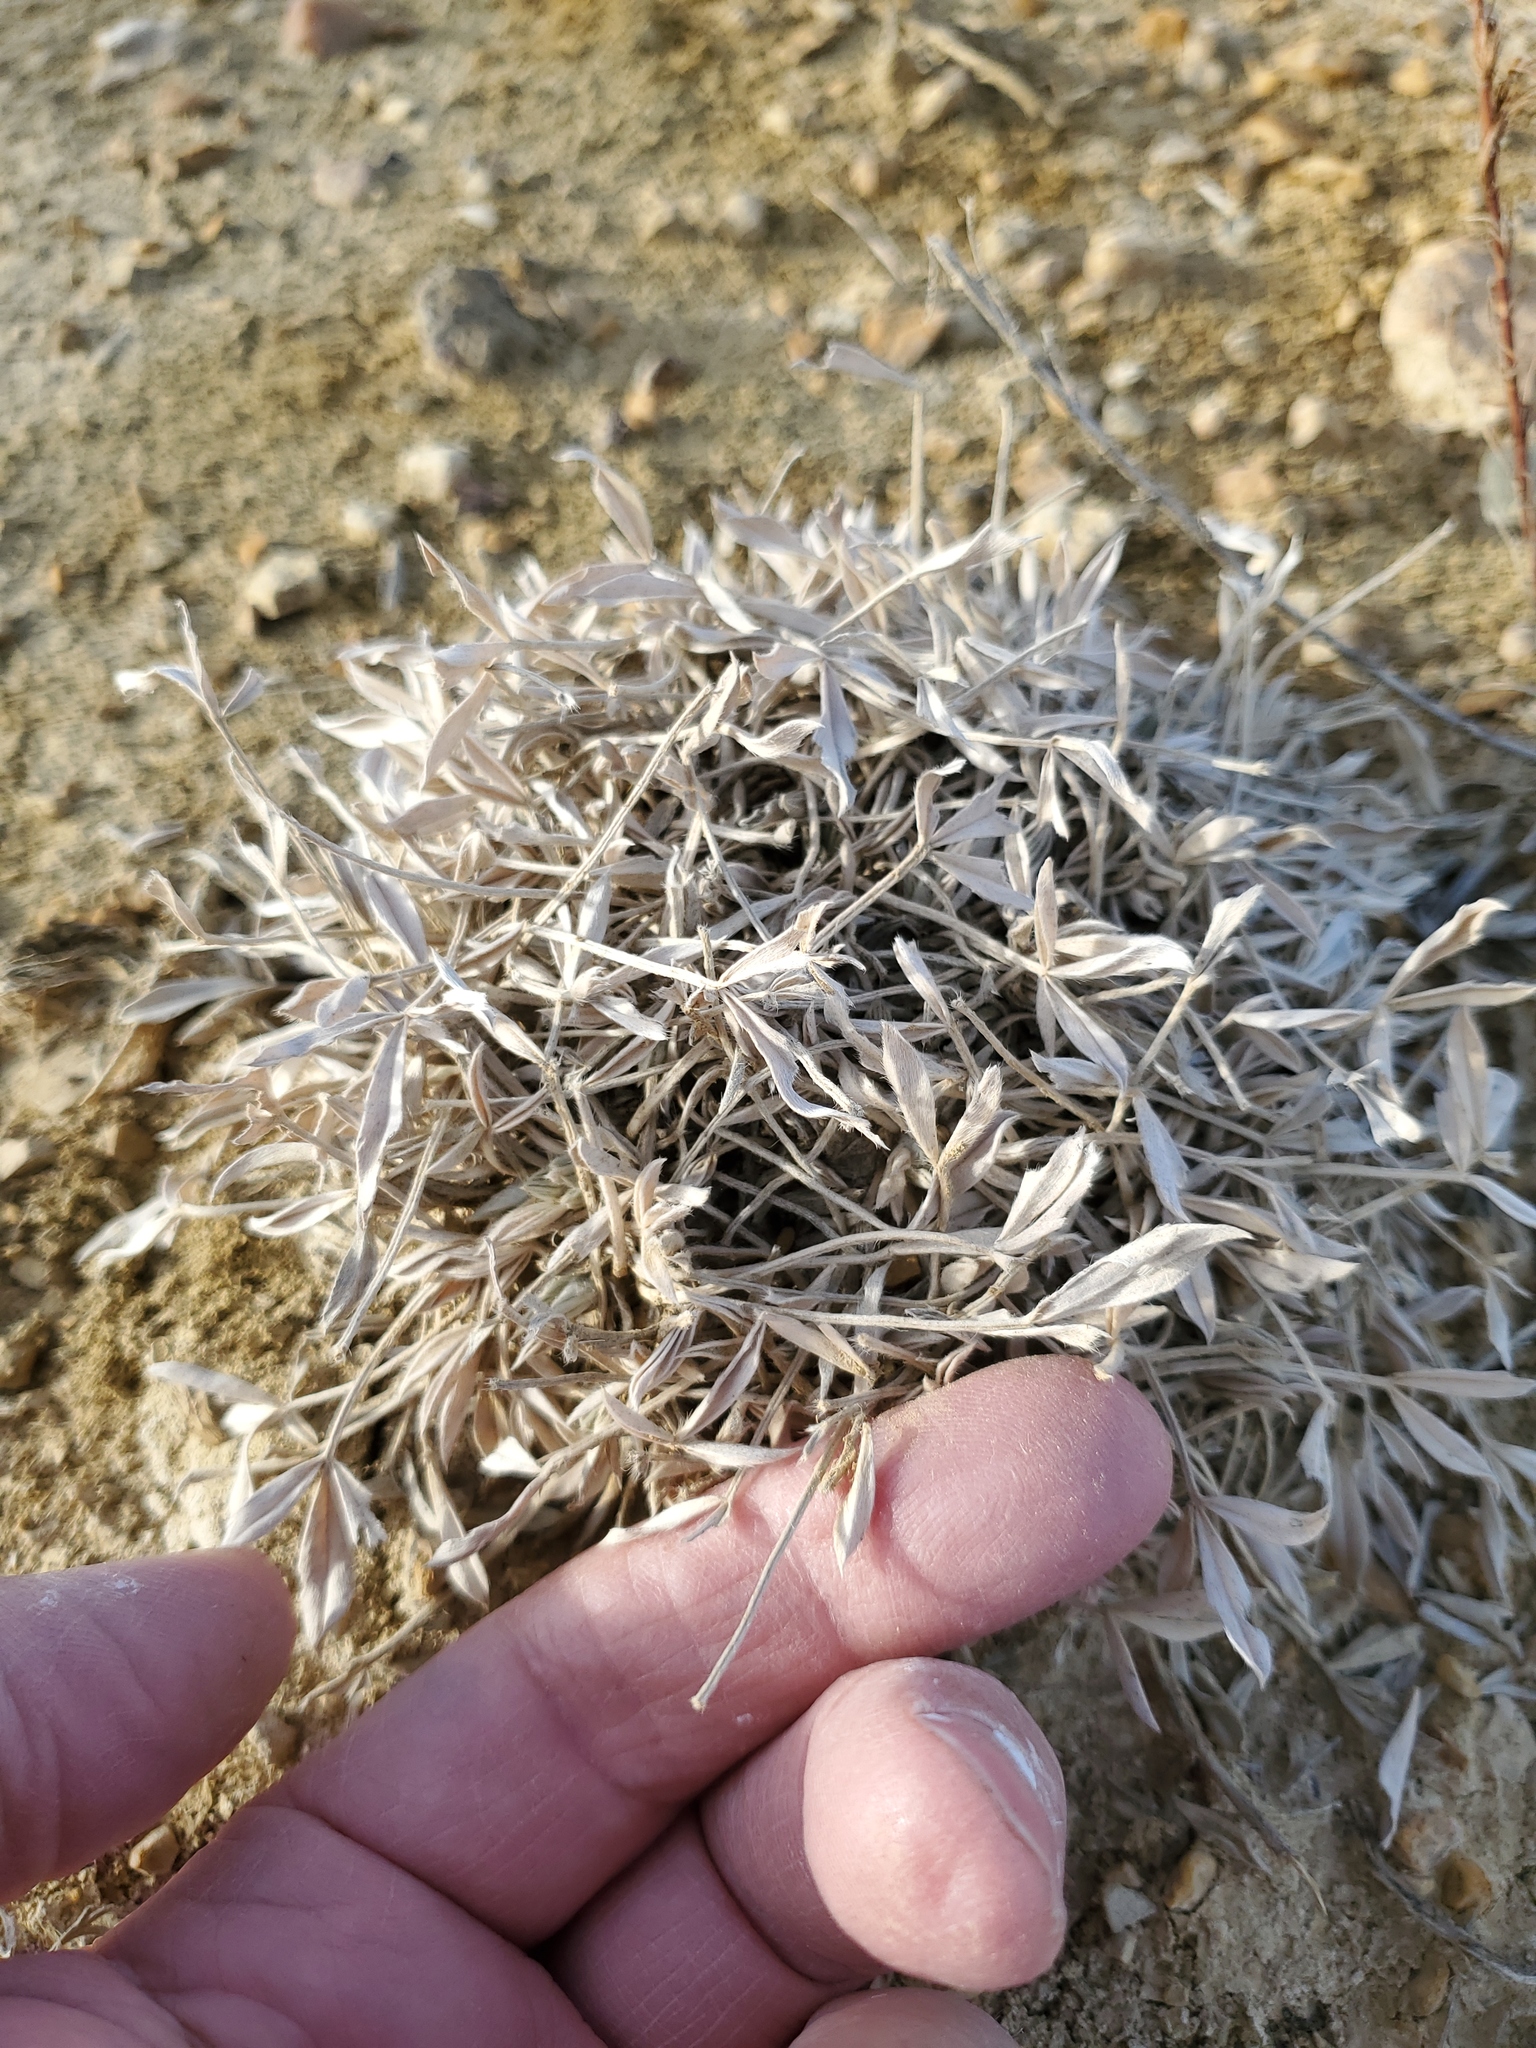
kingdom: Plantae
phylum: Tracheophyta
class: Magnoliopsida
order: Fabales
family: Fabaceae
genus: Astragalus
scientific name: Astragalus gilviflorus
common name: Cushion milk-vetch
